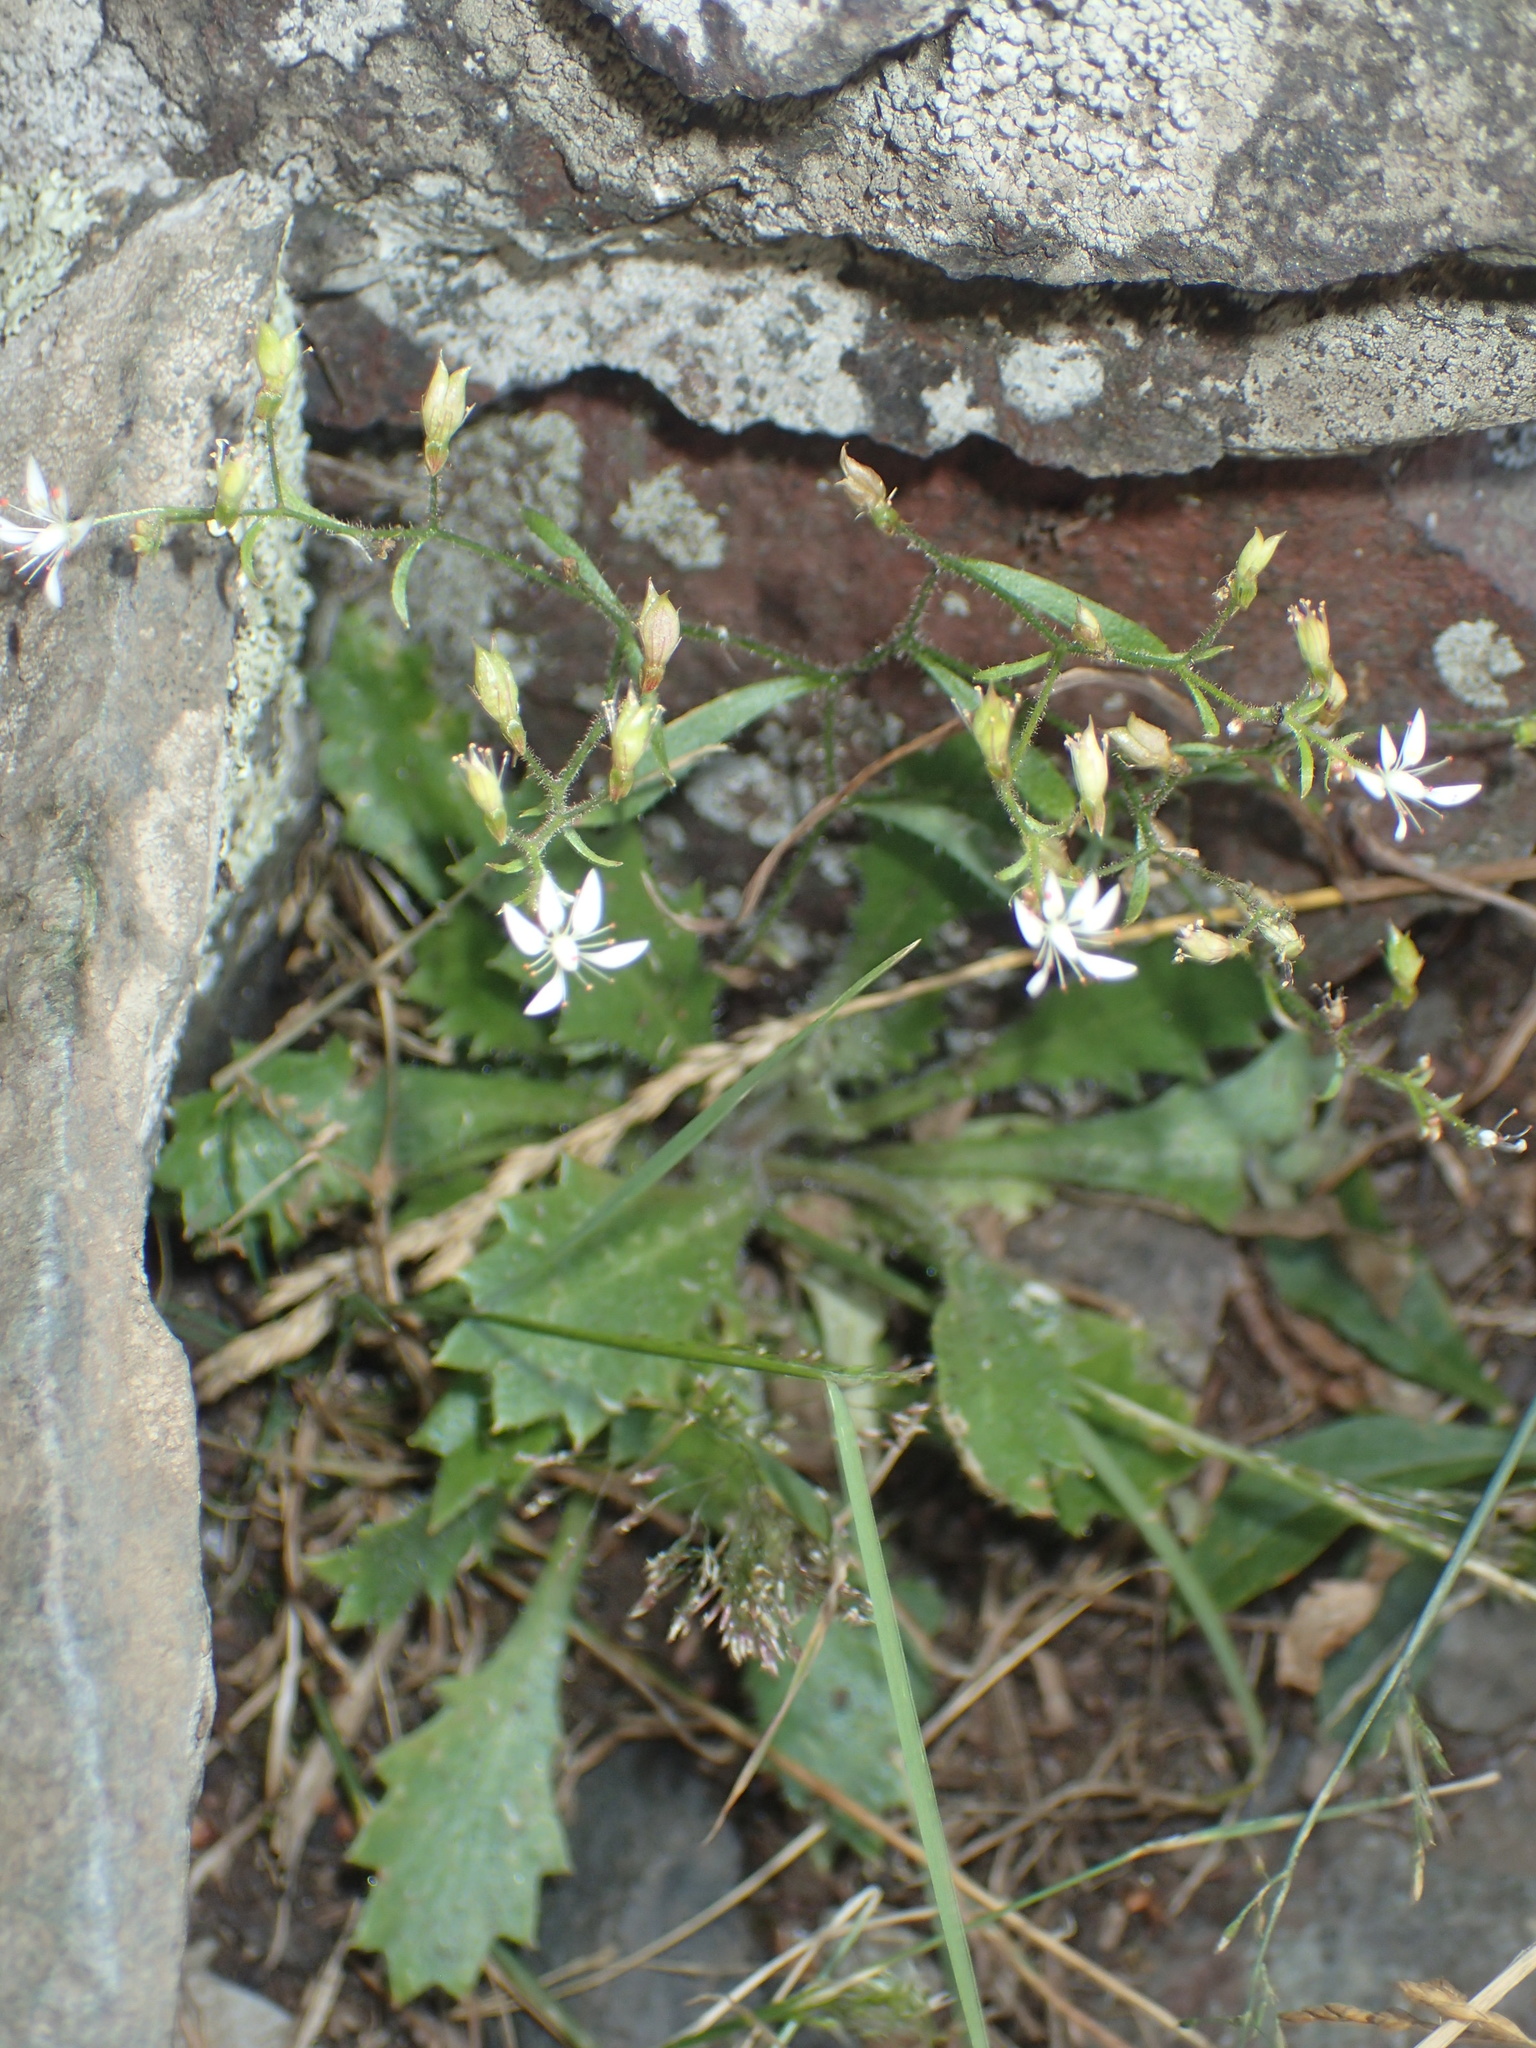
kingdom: Plantae
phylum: Tracheophyta
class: Magnoliopsida
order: Saxifragales
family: Saxifragaceae
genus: Micranthes
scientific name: Micranthes petiolaris
